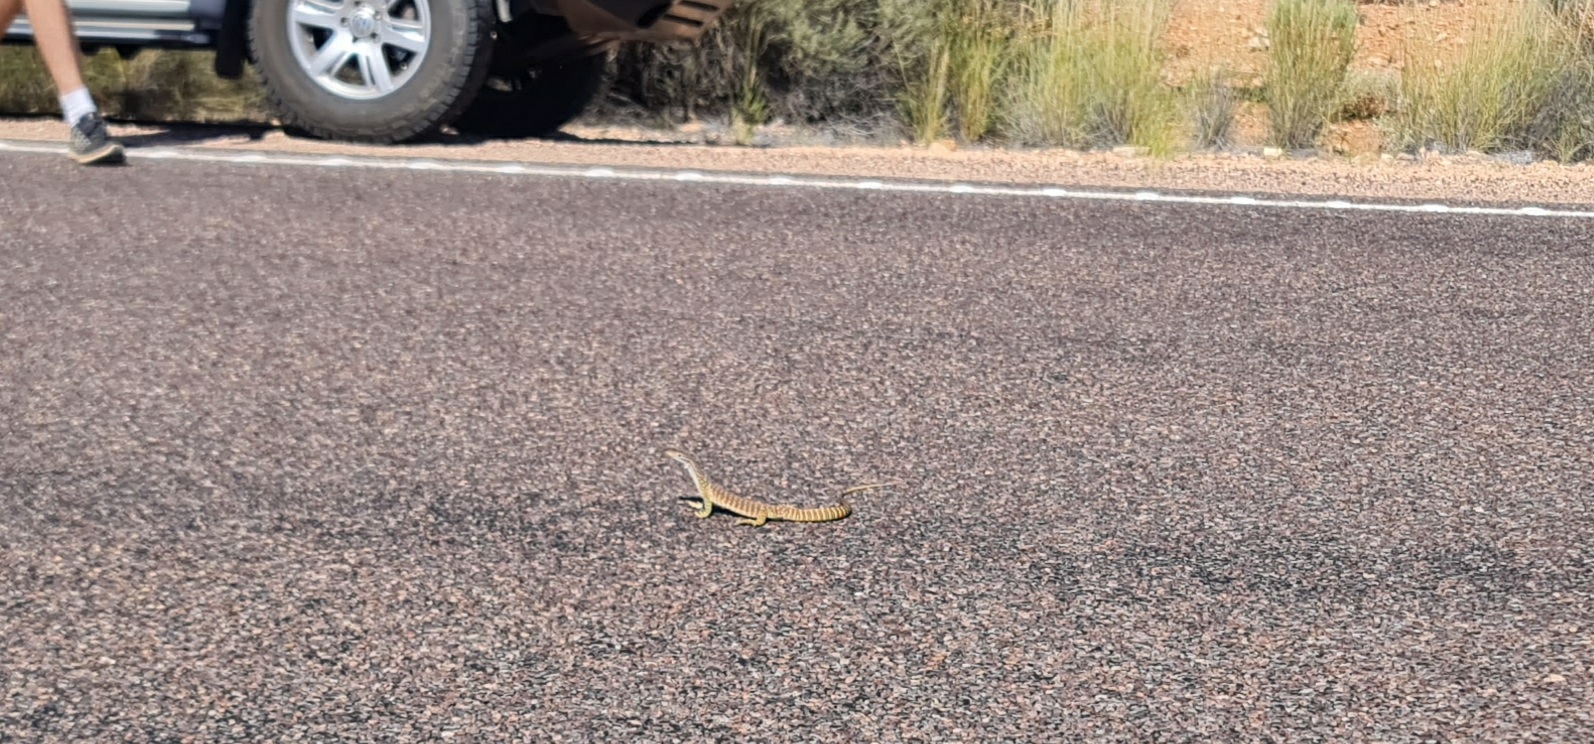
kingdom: Animalia
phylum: Chordata
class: Squamata
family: Varanidae
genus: Varanus
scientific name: Varanus gouldii
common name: Gould's goanna
